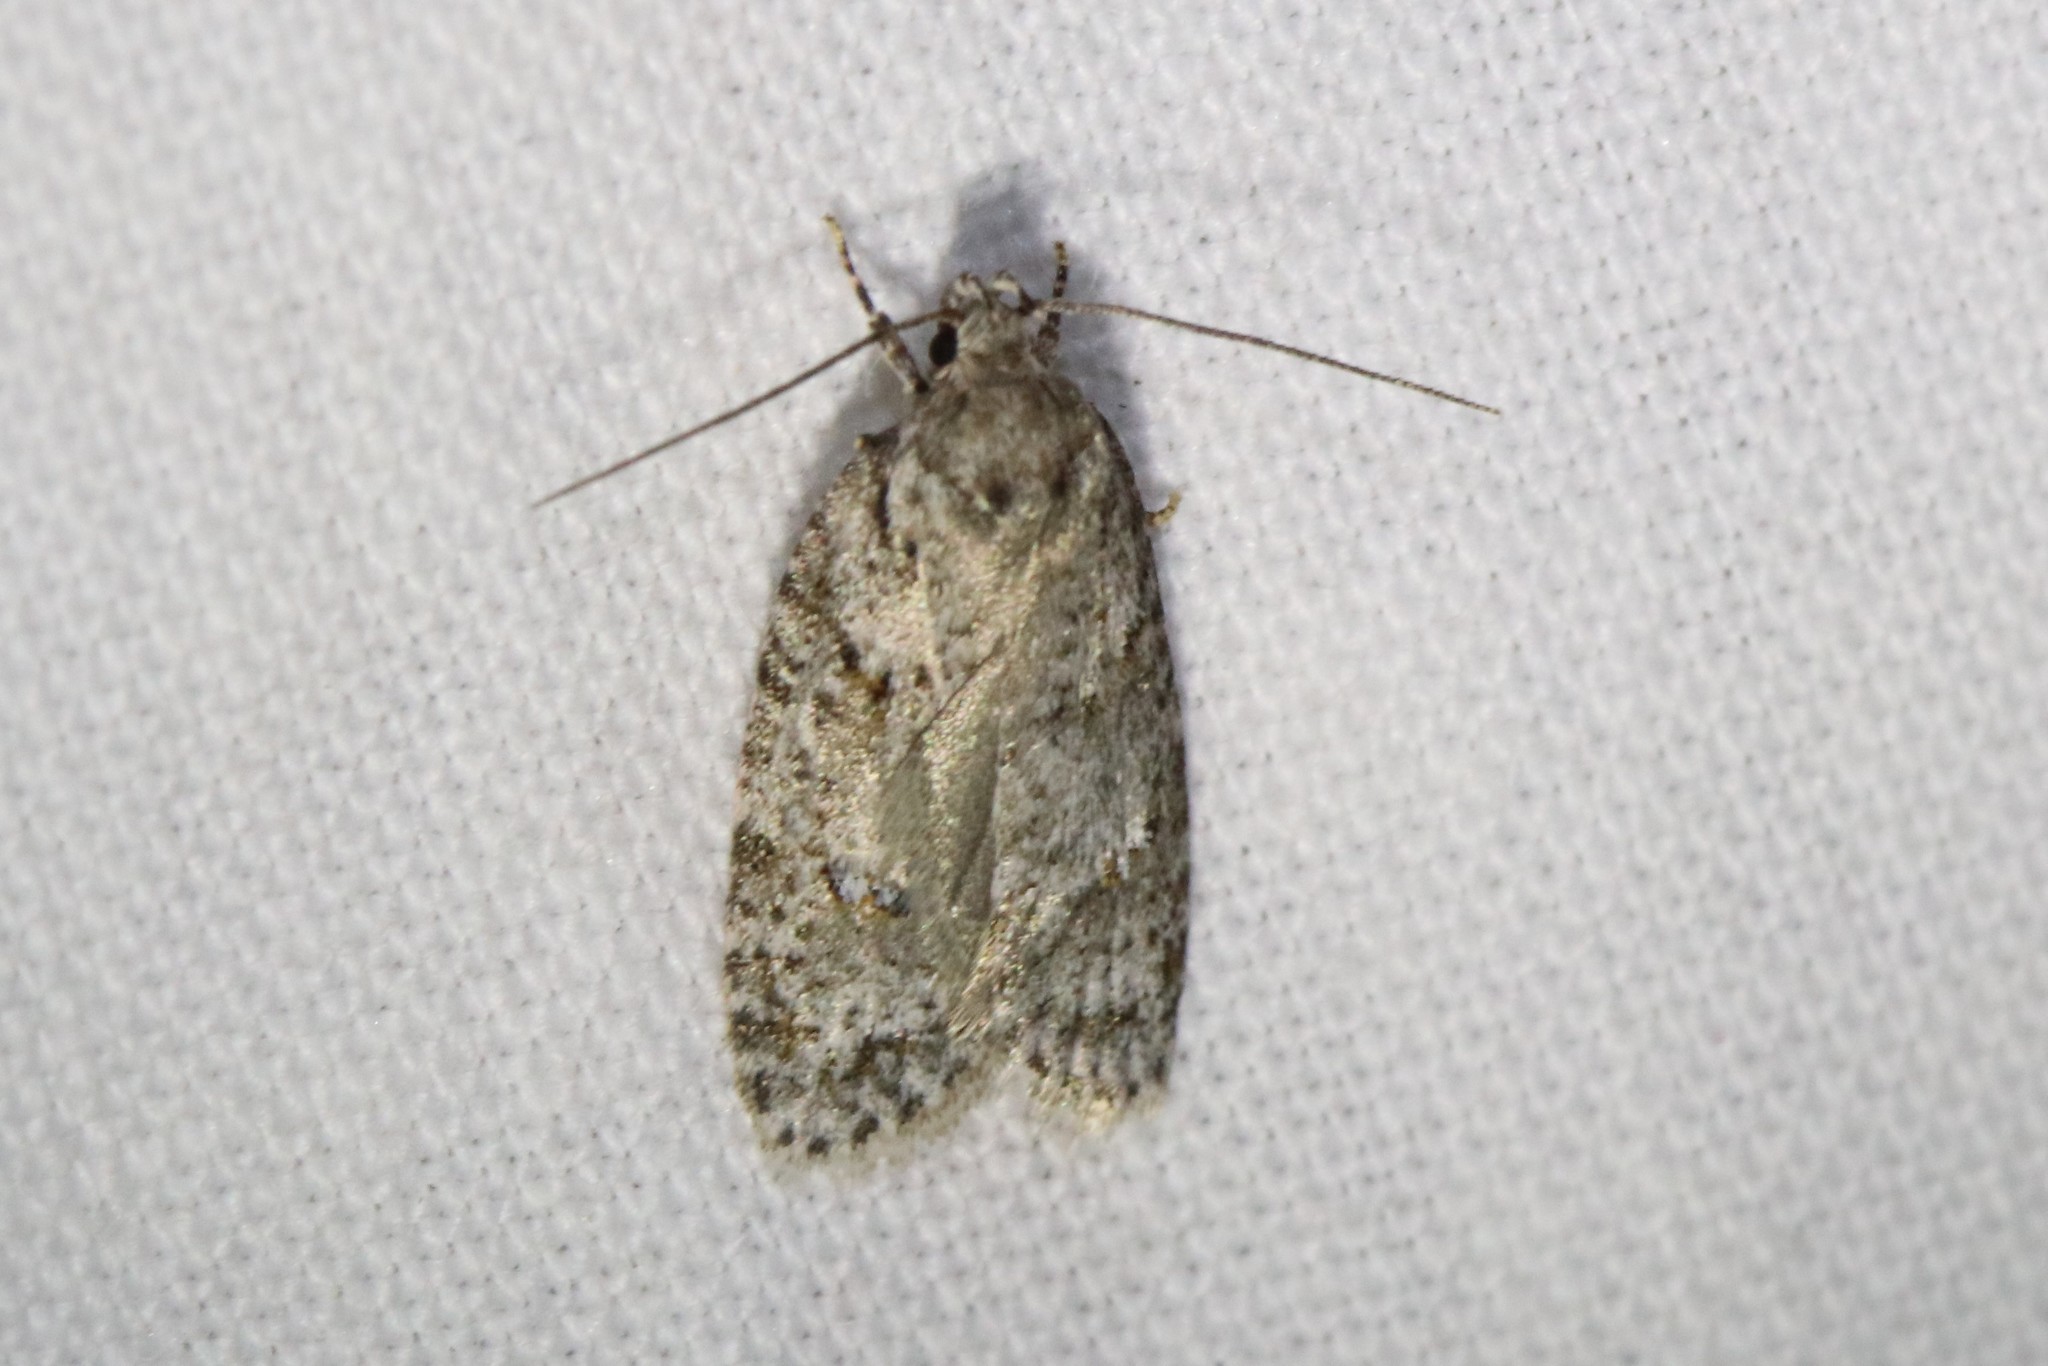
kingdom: Animalia
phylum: Arthropoda
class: Insecta
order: Lepidoptera
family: Depressariidae
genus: Bibarrambla
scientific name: Bibarrambla allenella
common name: Bog bibarrambla moth
